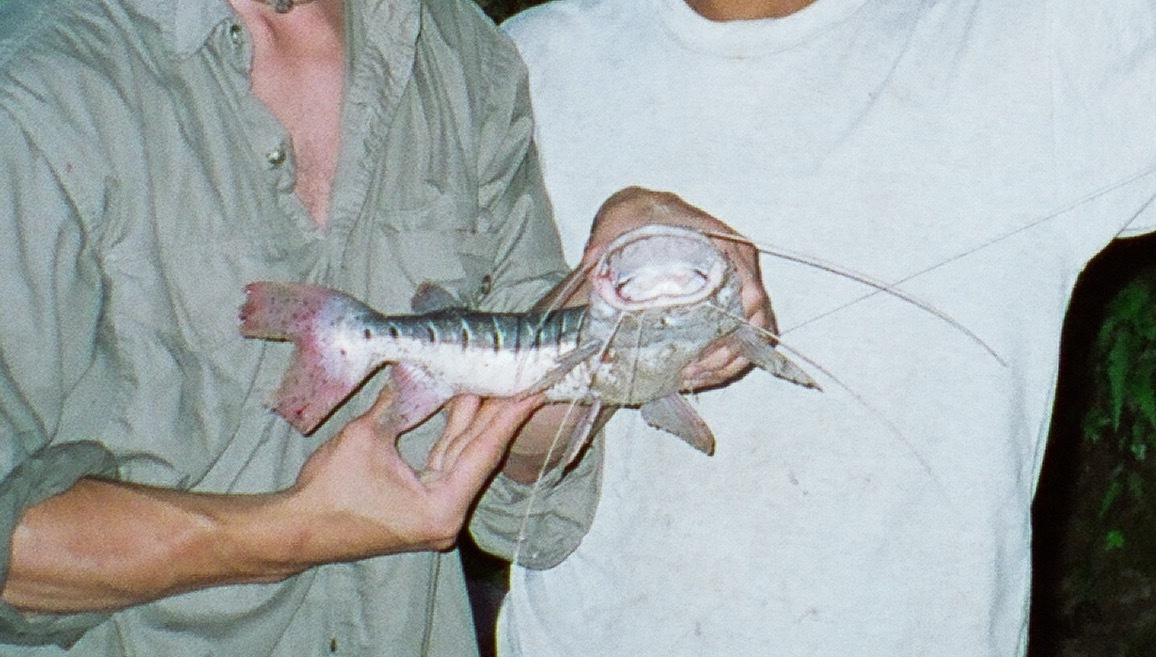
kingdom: Animalia
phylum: Chordata
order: Siluriformes
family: Pimelodidae
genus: Pseudoplatystoma
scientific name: Pseudoplatystoma punctifer
